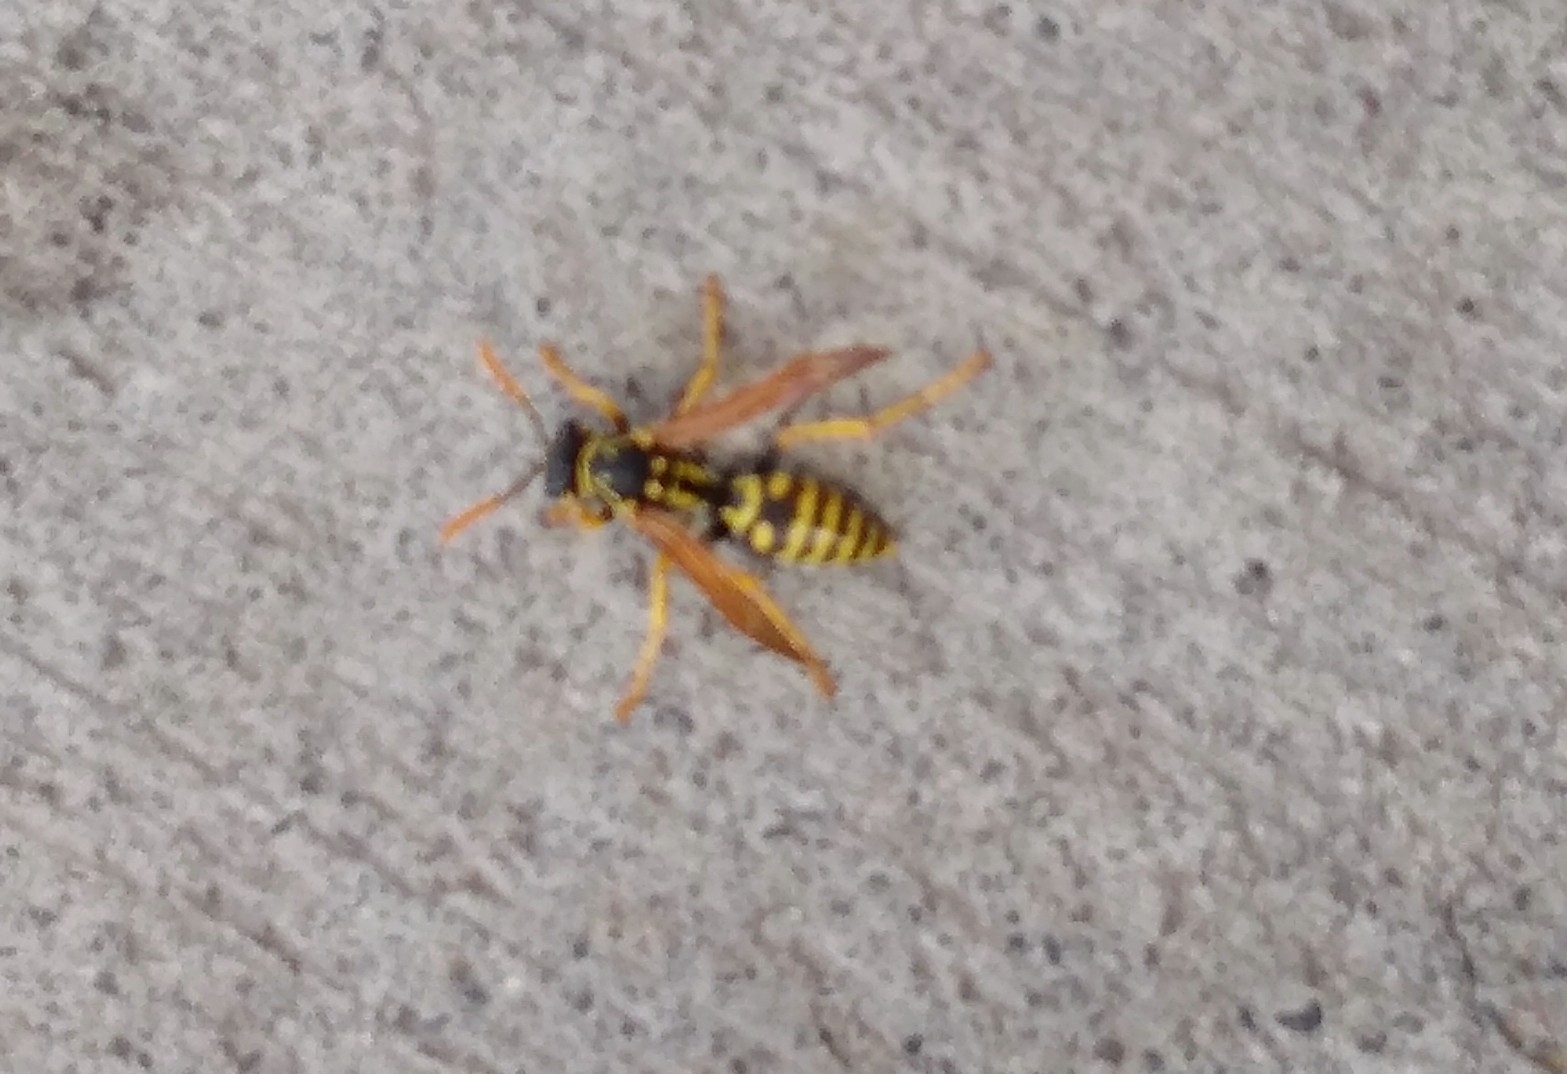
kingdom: Animalia
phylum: Arthropoda
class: Insecta
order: Hymenoptera
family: Eumenidae
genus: Polistes
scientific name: Polistes dominula
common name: Paper wasp
